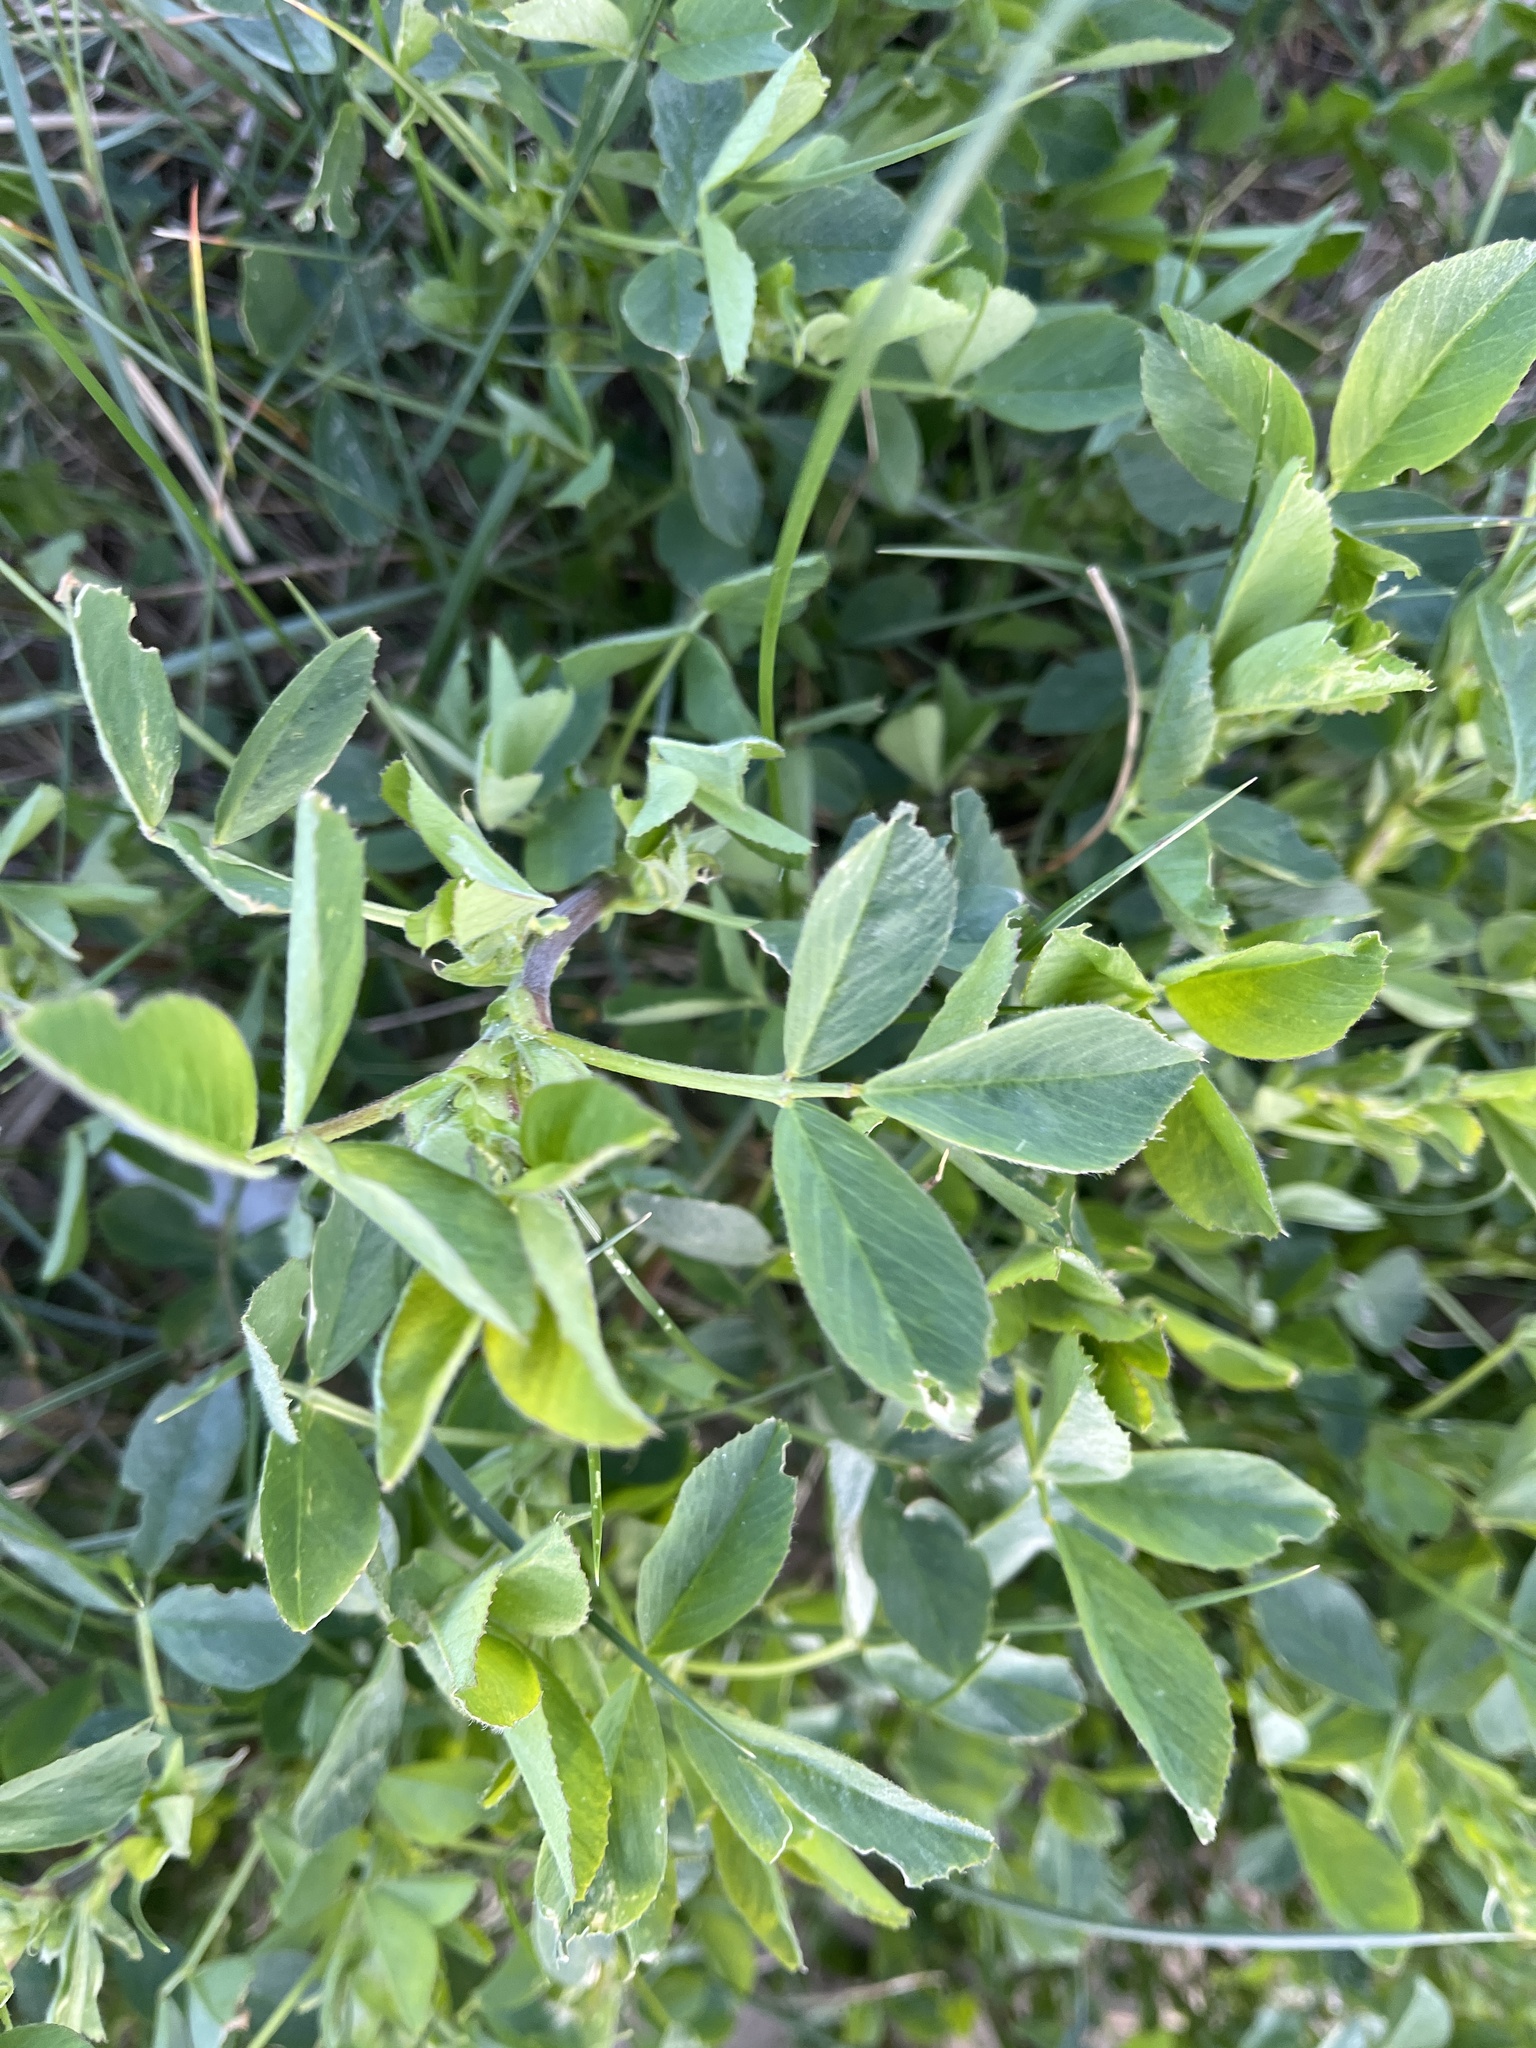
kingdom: Plantae
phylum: Tracheophyta
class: Magnoliopsida
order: Fabales
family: Fabaceae
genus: Medicago
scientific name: Medicago sativa
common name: Alfalfa
